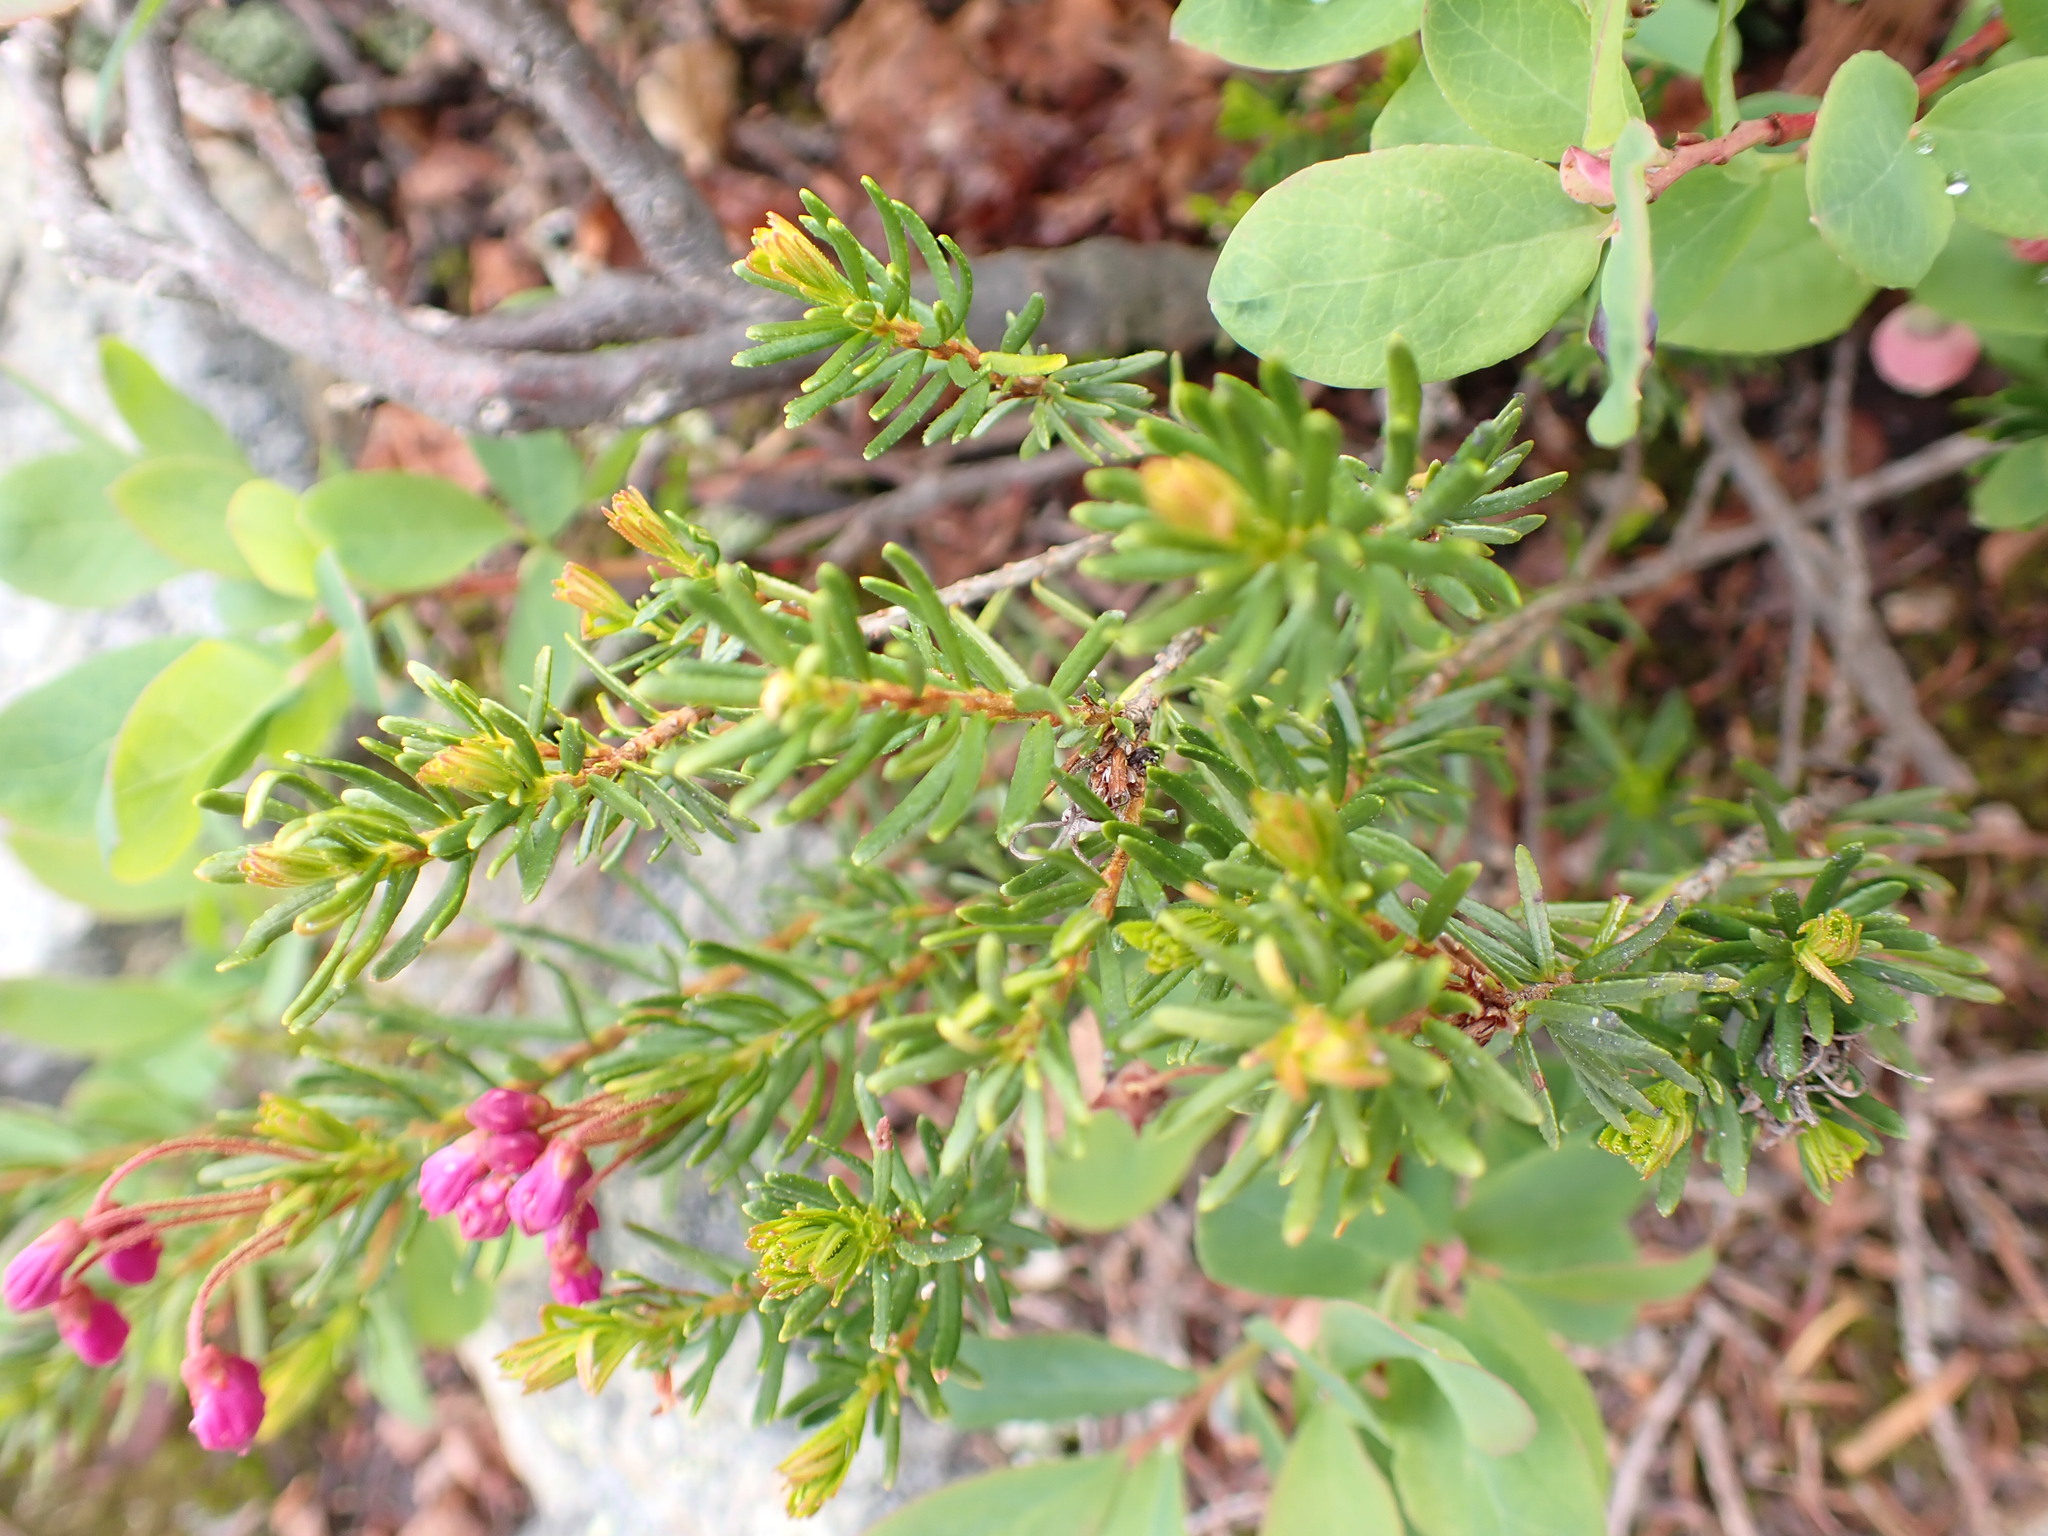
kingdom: Plantae
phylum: Tracheophyta
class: Magnoliopsida
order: Ericales
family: Ericaceae
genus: Phyllodoce
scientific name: Phyllodoce empetriformis
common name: Pink mountain heather
